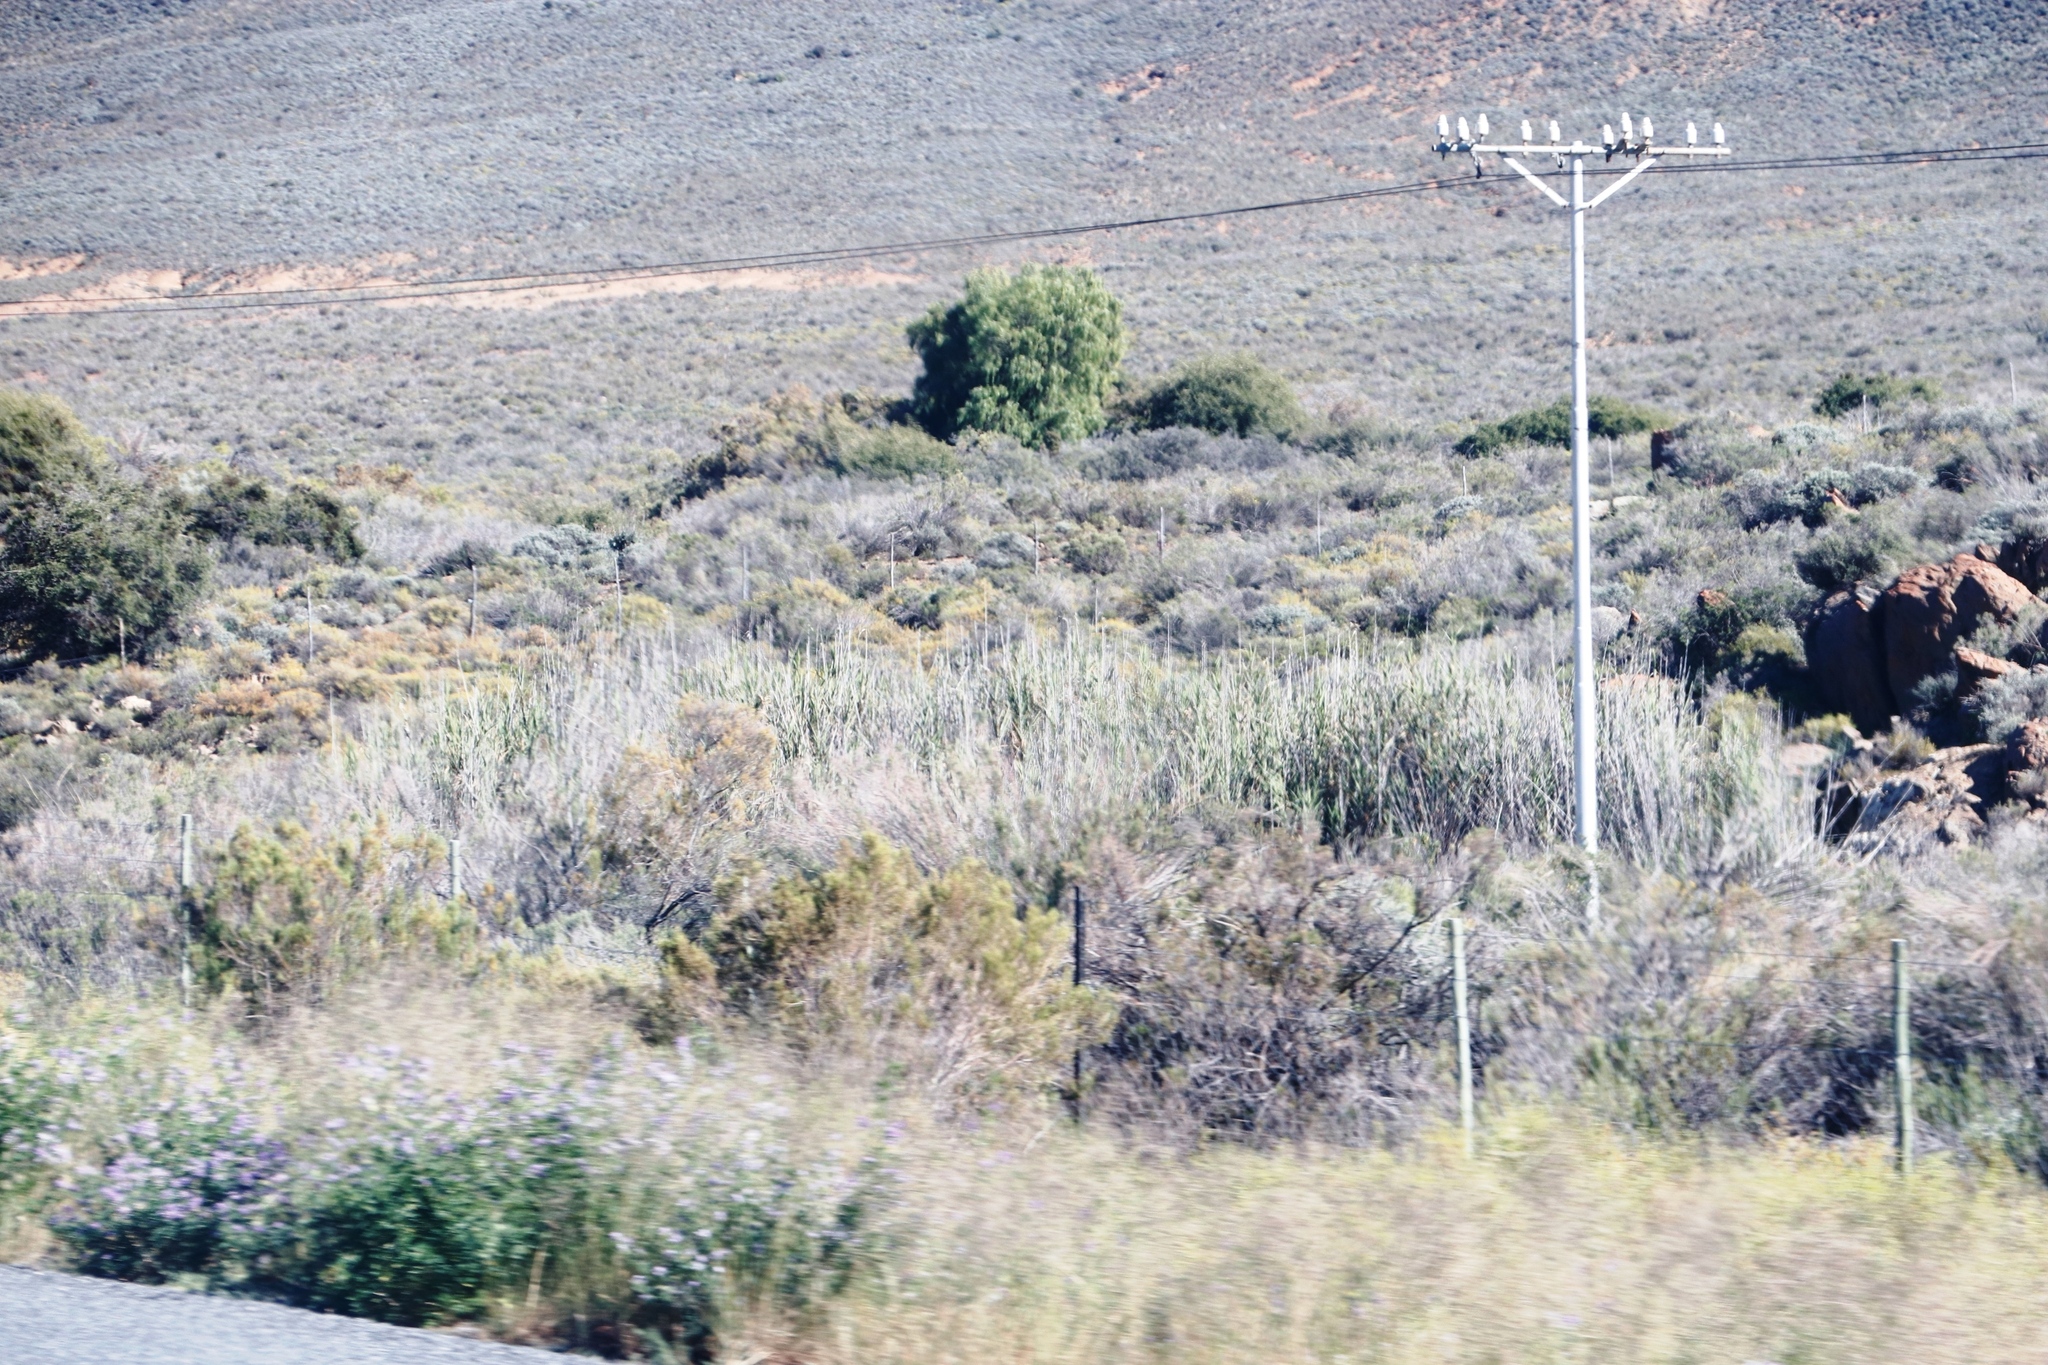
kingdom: Plantae
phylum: Tracheophyta
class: Magnoliopsida
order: Fabales
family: Fabaceae
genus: Medicago
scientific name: Medicago sativa
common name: Alfalfa
